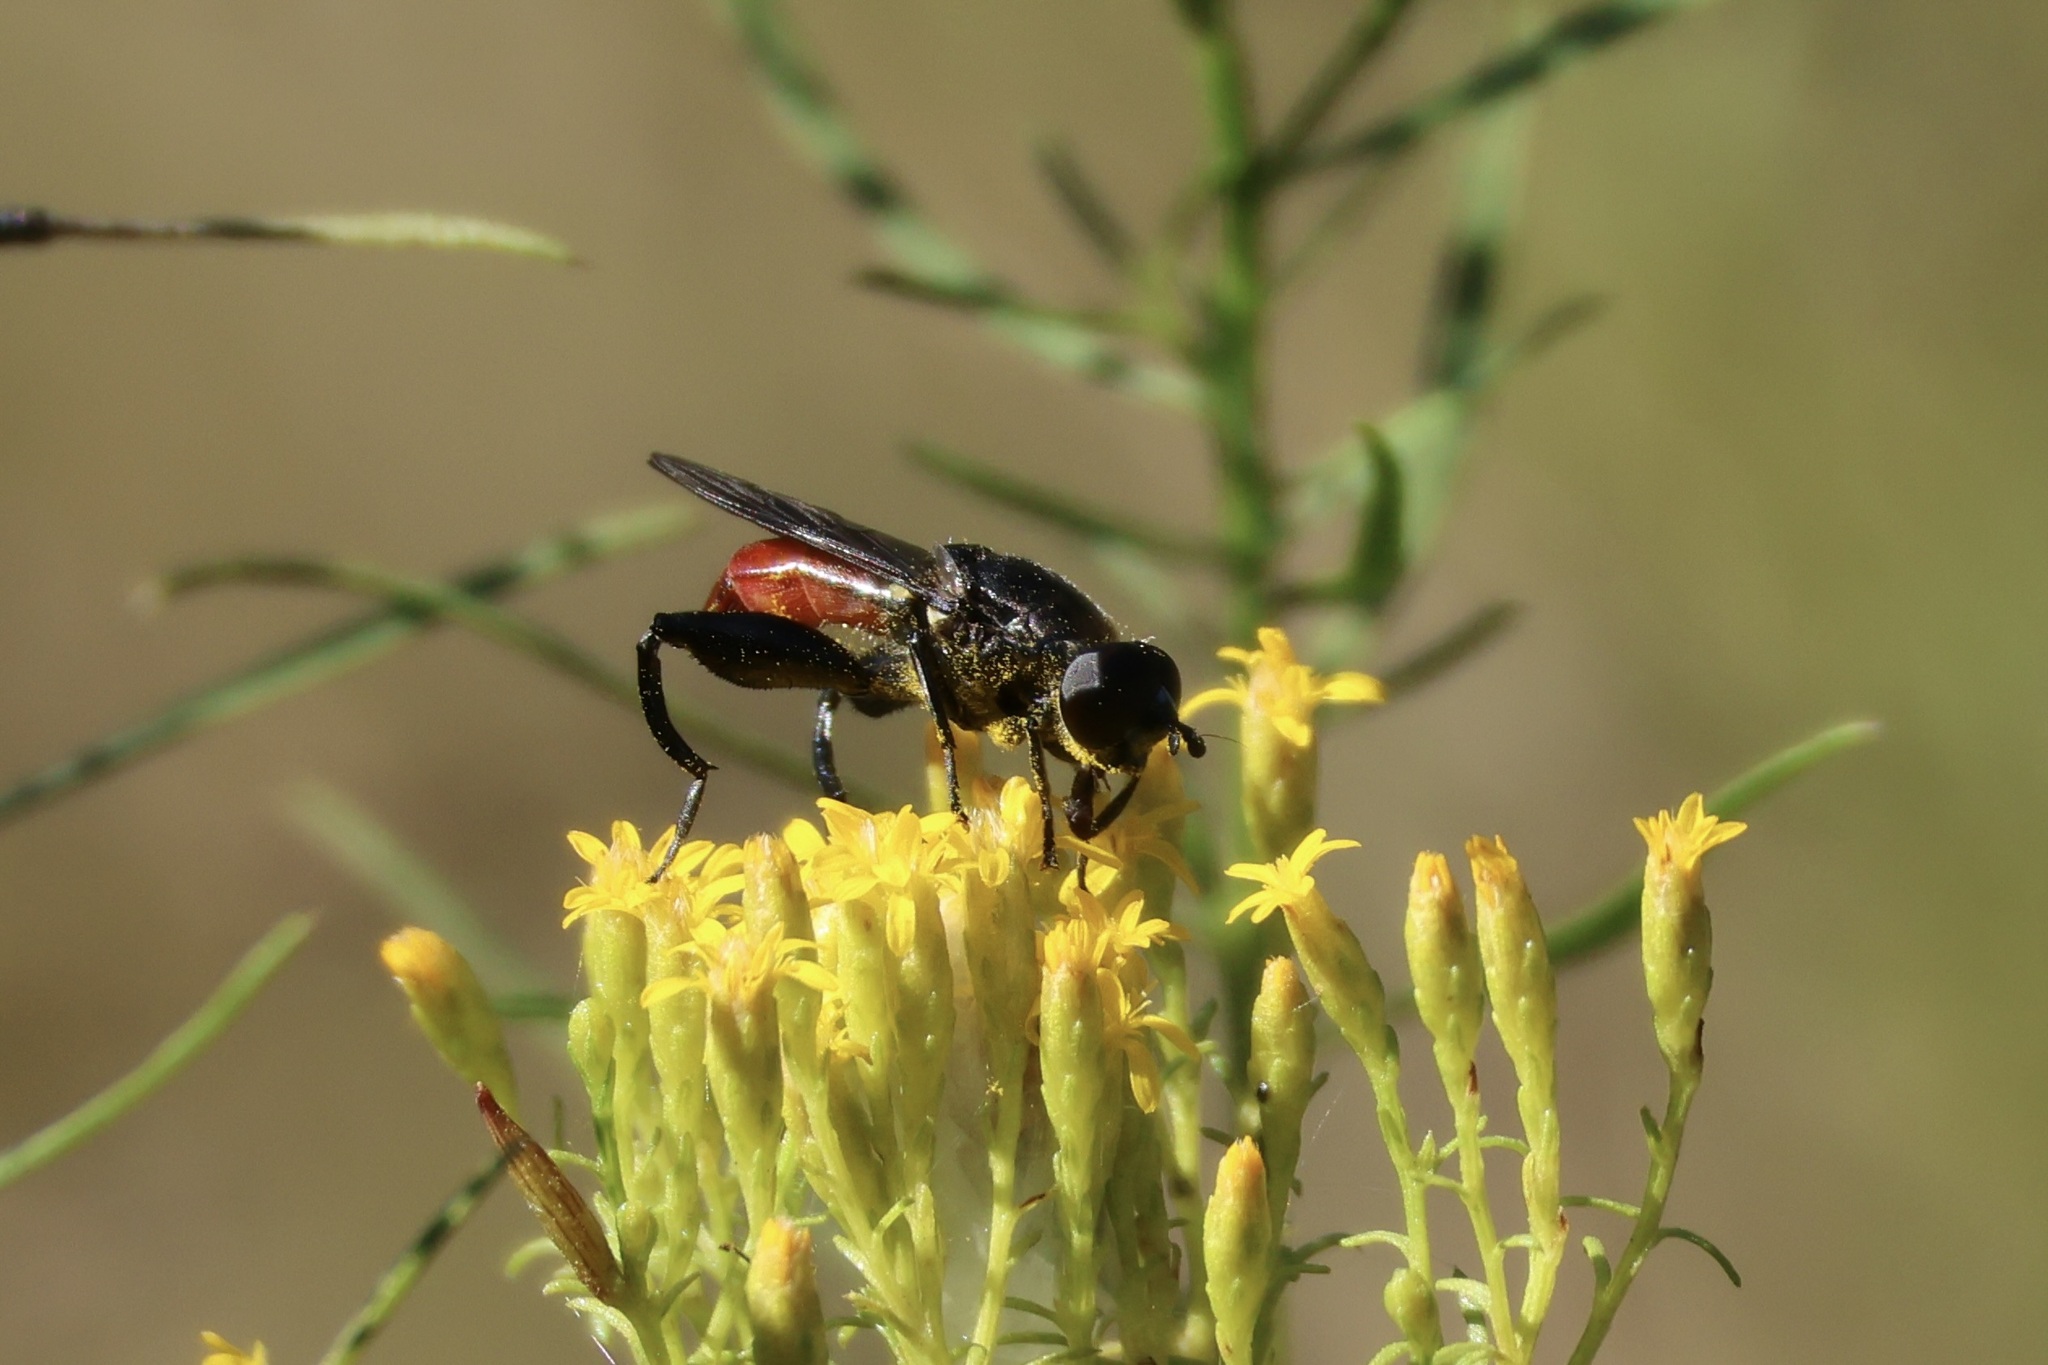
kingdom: Animalia
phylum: Arthropoda
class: Insecta
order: Diptera
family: Syrphidae
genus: Chalcosyrphus
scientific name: Chalcosyrphus piger
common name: Short-haired leafwalker
